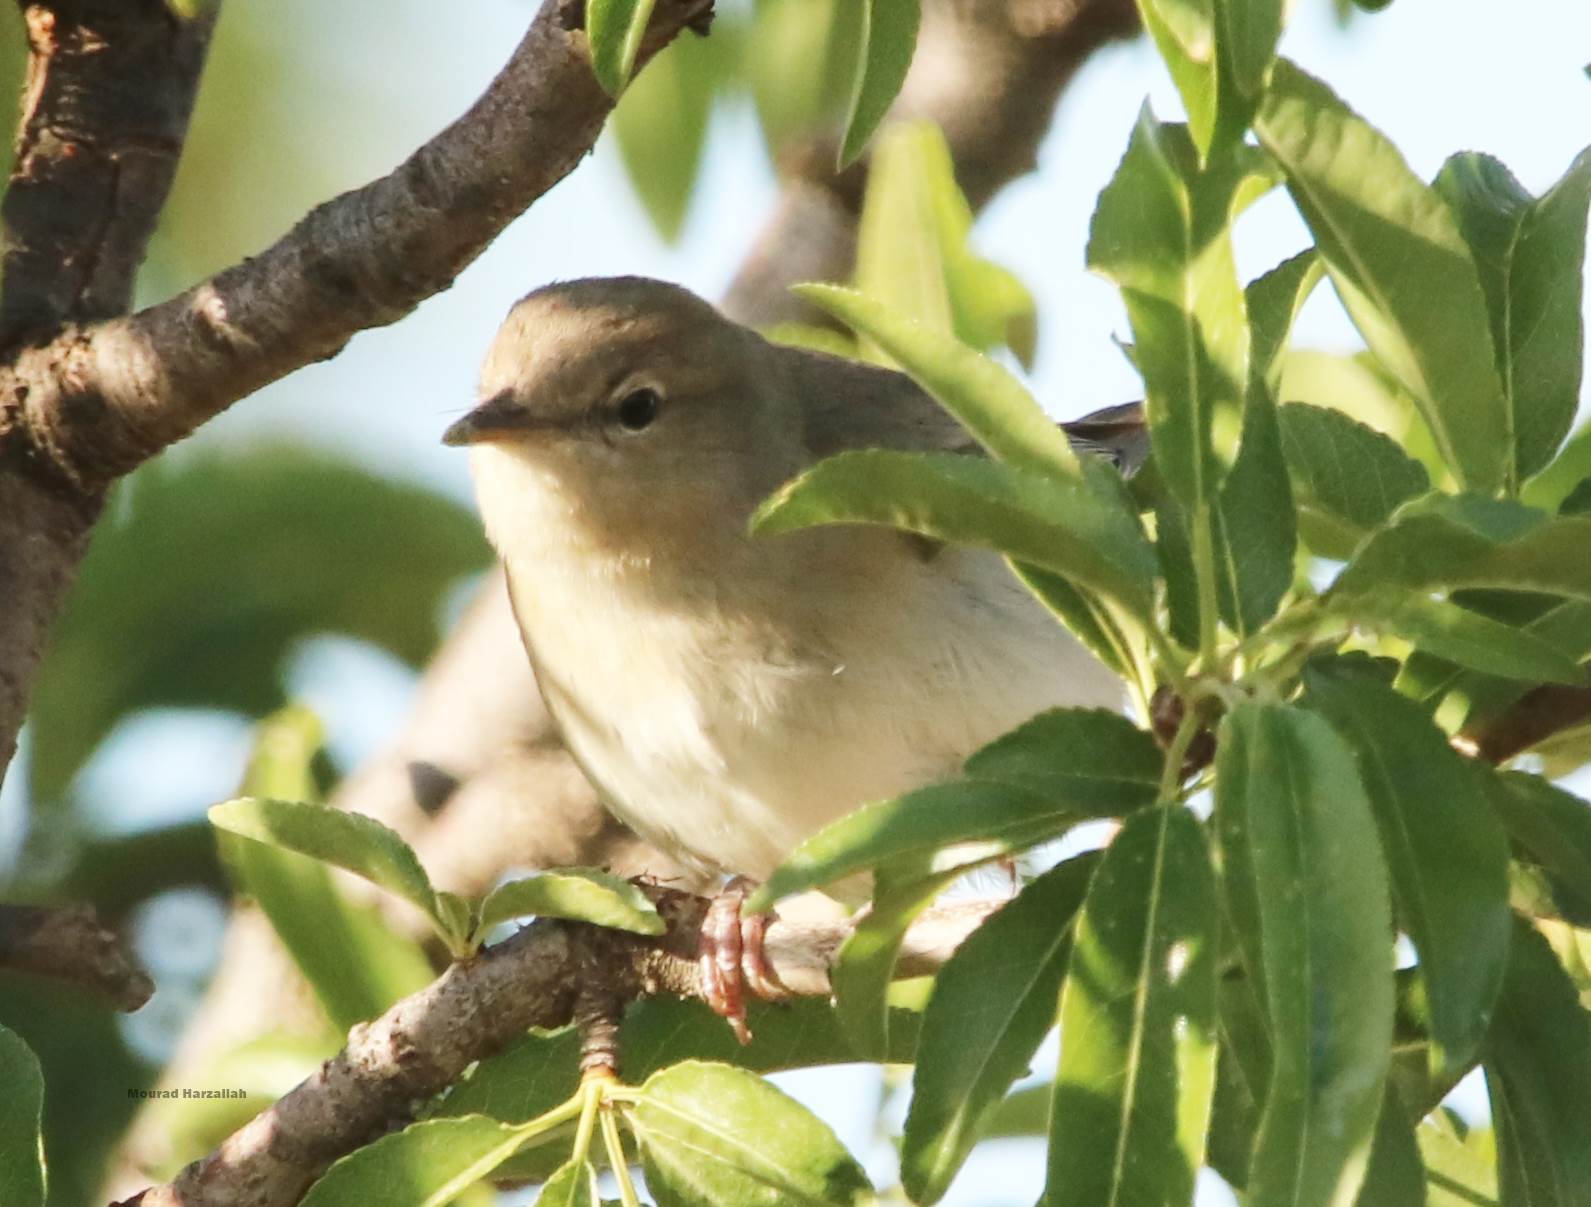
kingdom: Animalia
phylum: Chordata
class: Aves
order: Passeriformes
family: Sylviidae
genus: Sylvia
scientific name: Sylvia borin
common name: Garden warbler
